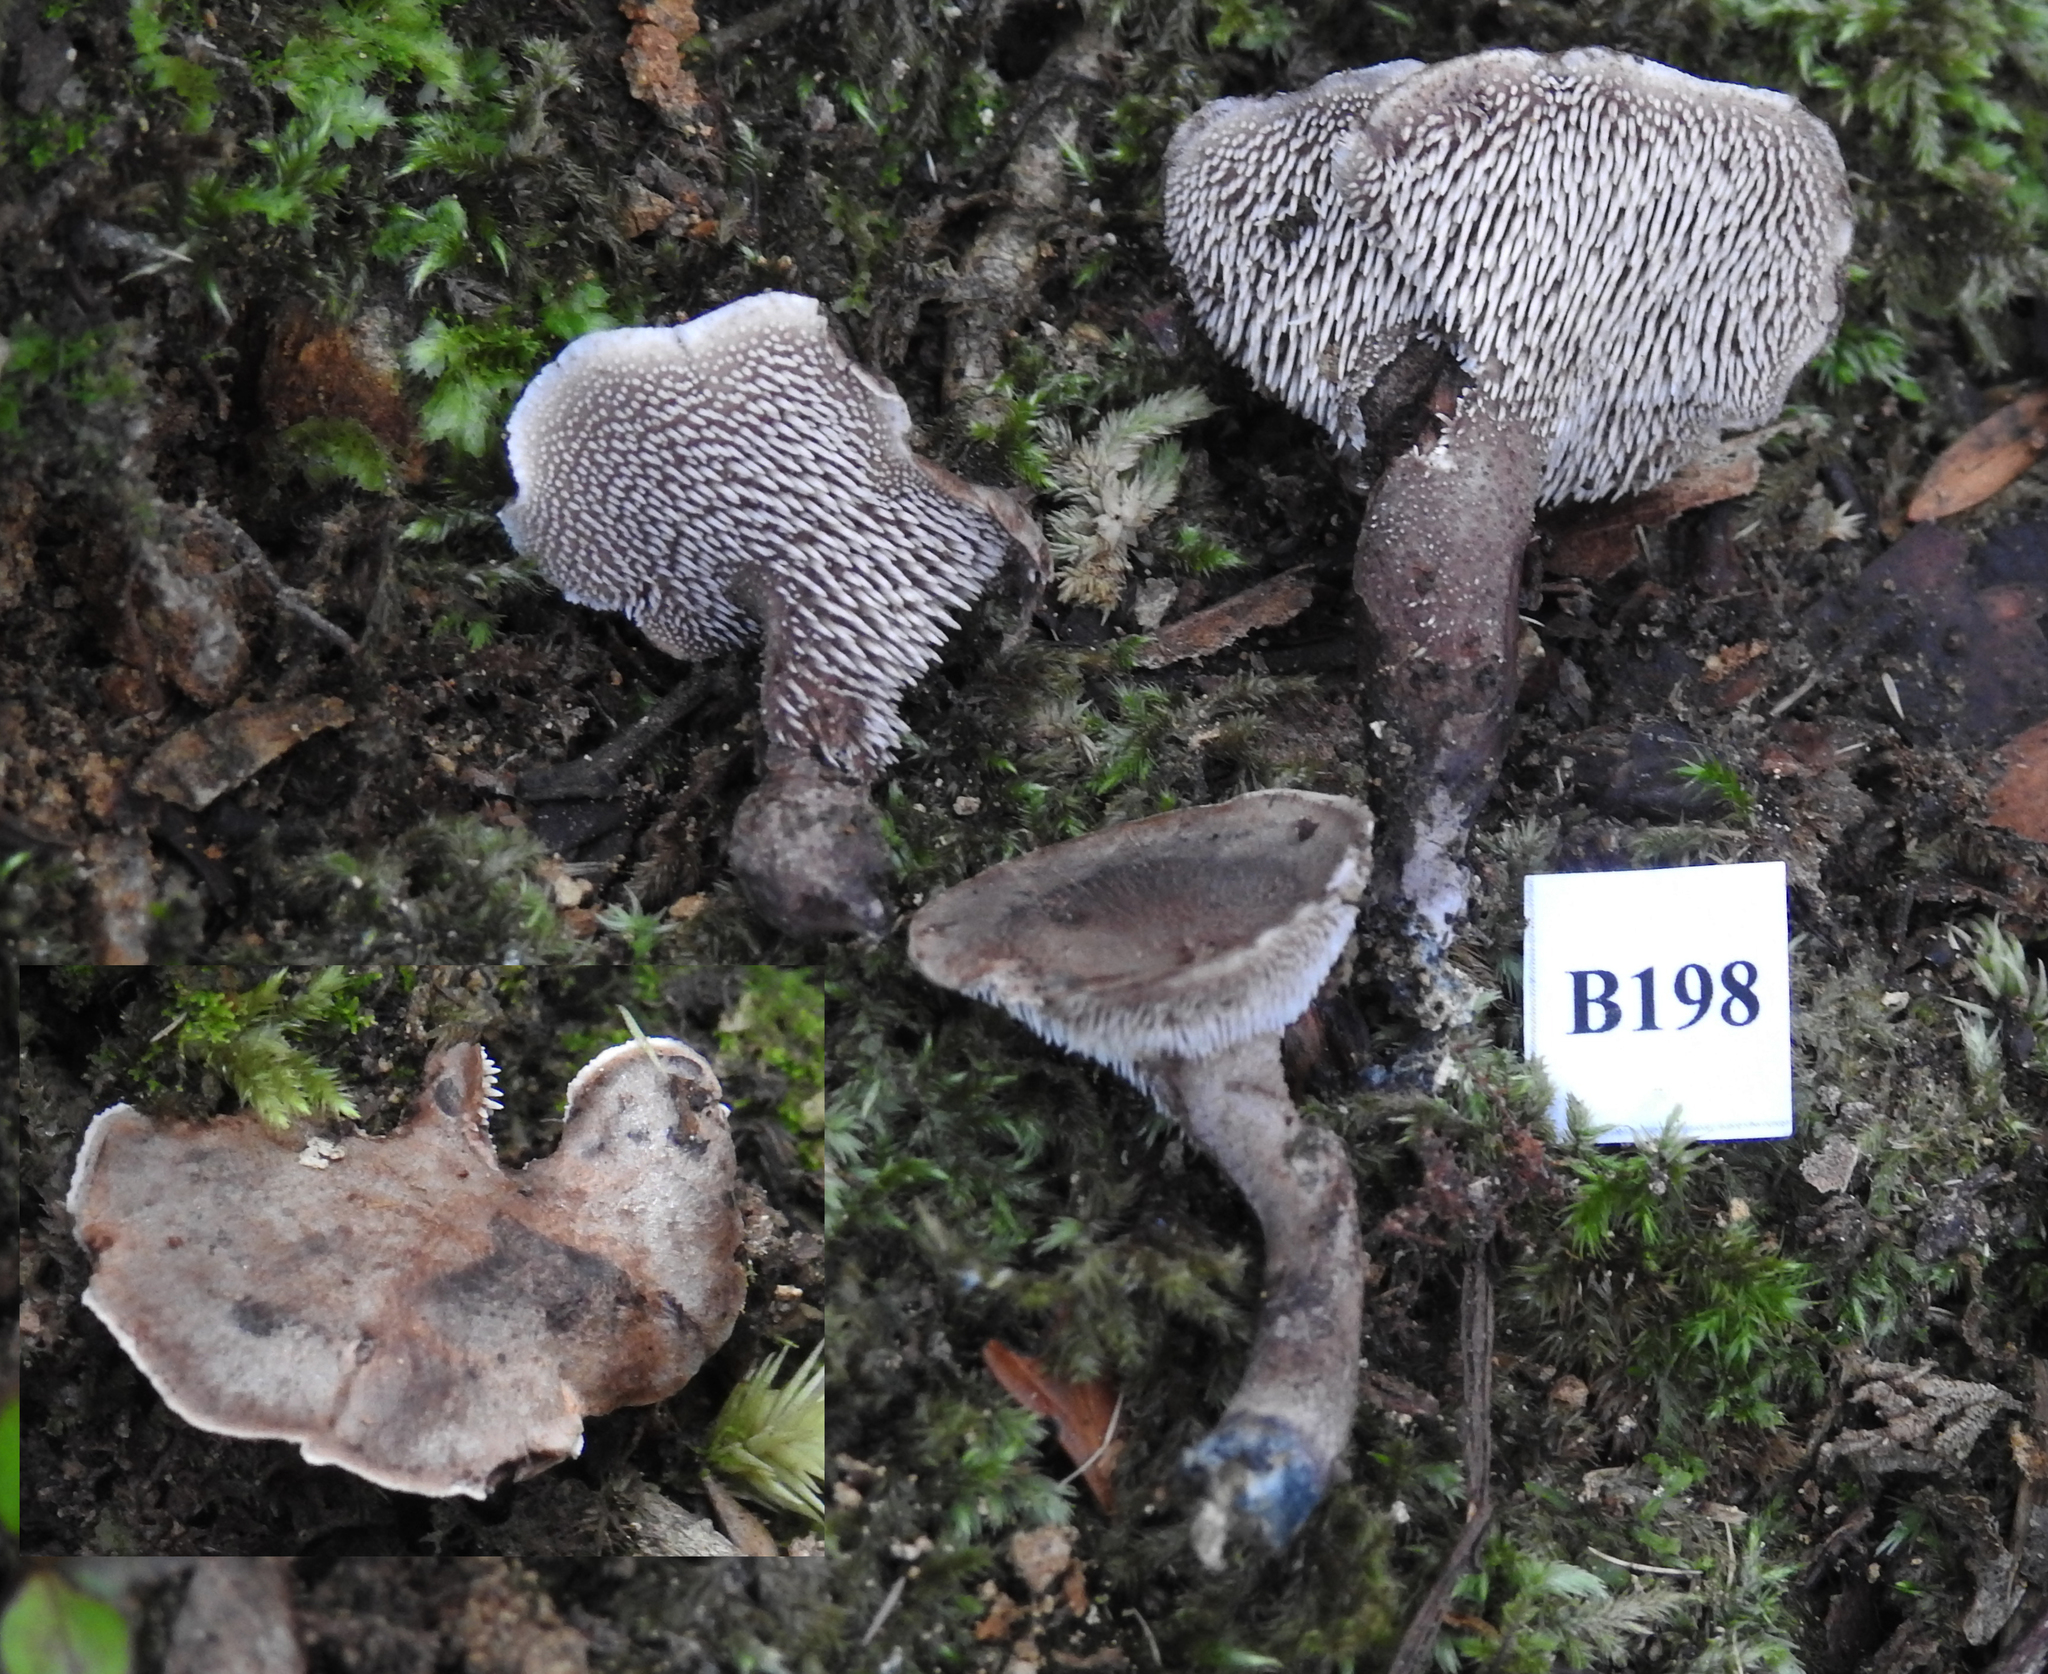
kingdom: Fungi
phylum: Basidiomycota
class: Agaricomycetes
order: Thelephorales
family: Bankeraceae
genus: Sarcodon
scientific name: Sarcodon carbonarius
